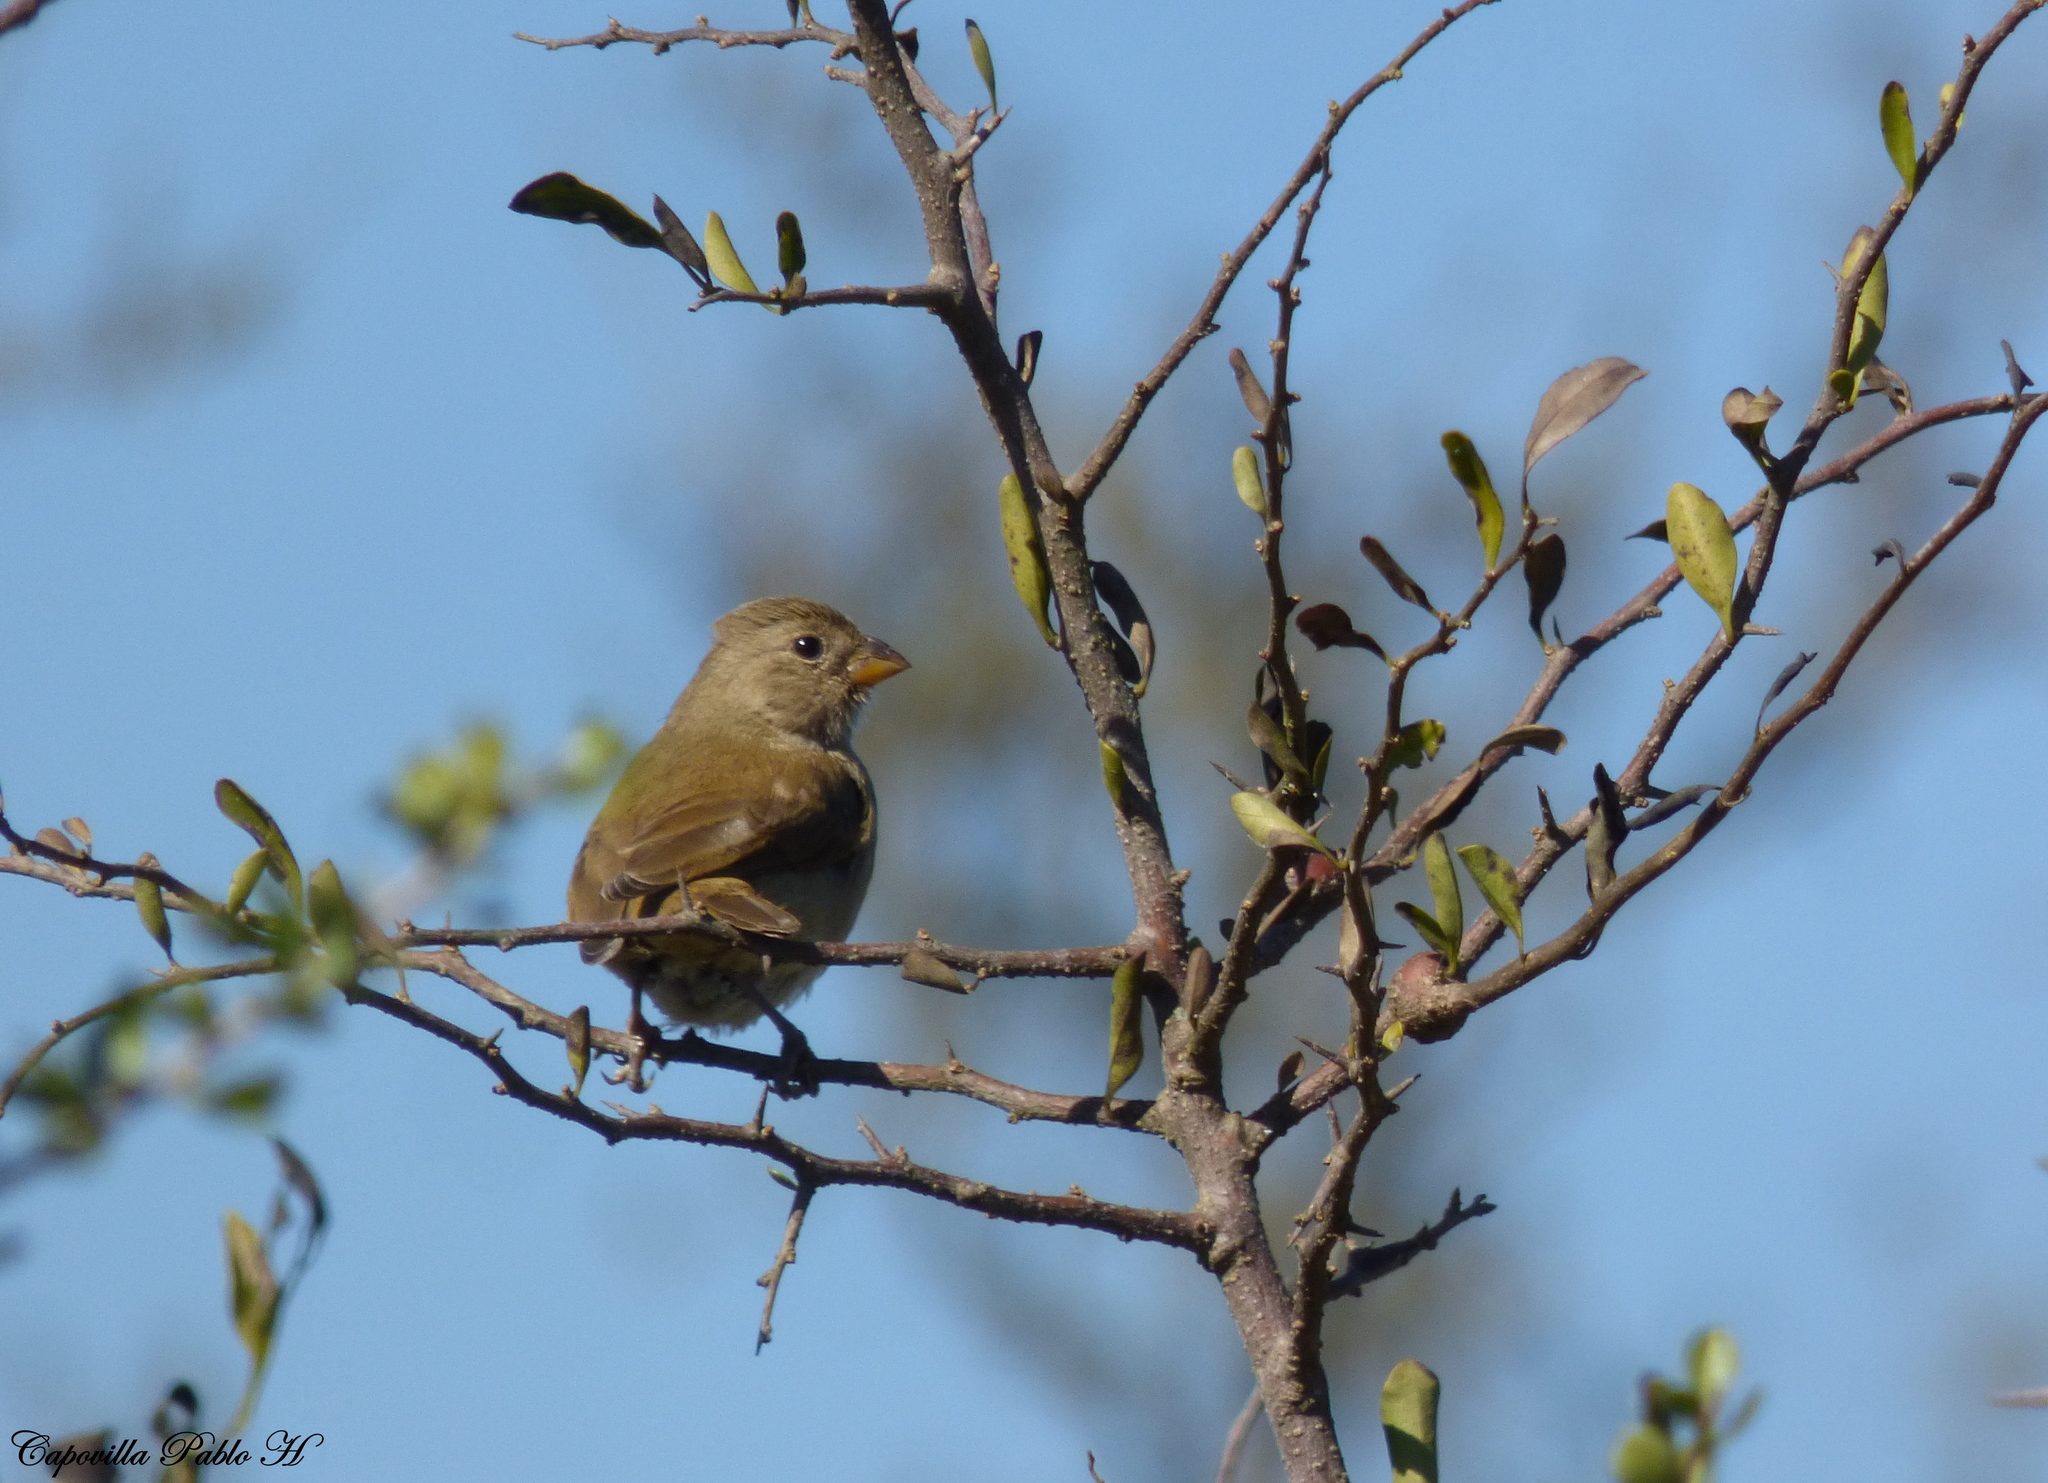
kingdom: Animalia
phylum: Chordata
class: Aves
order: Passeriformes
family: Thraupidae
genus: Asemospiza
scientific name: Asemospiza obscura
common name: Dull-colored grassquit
